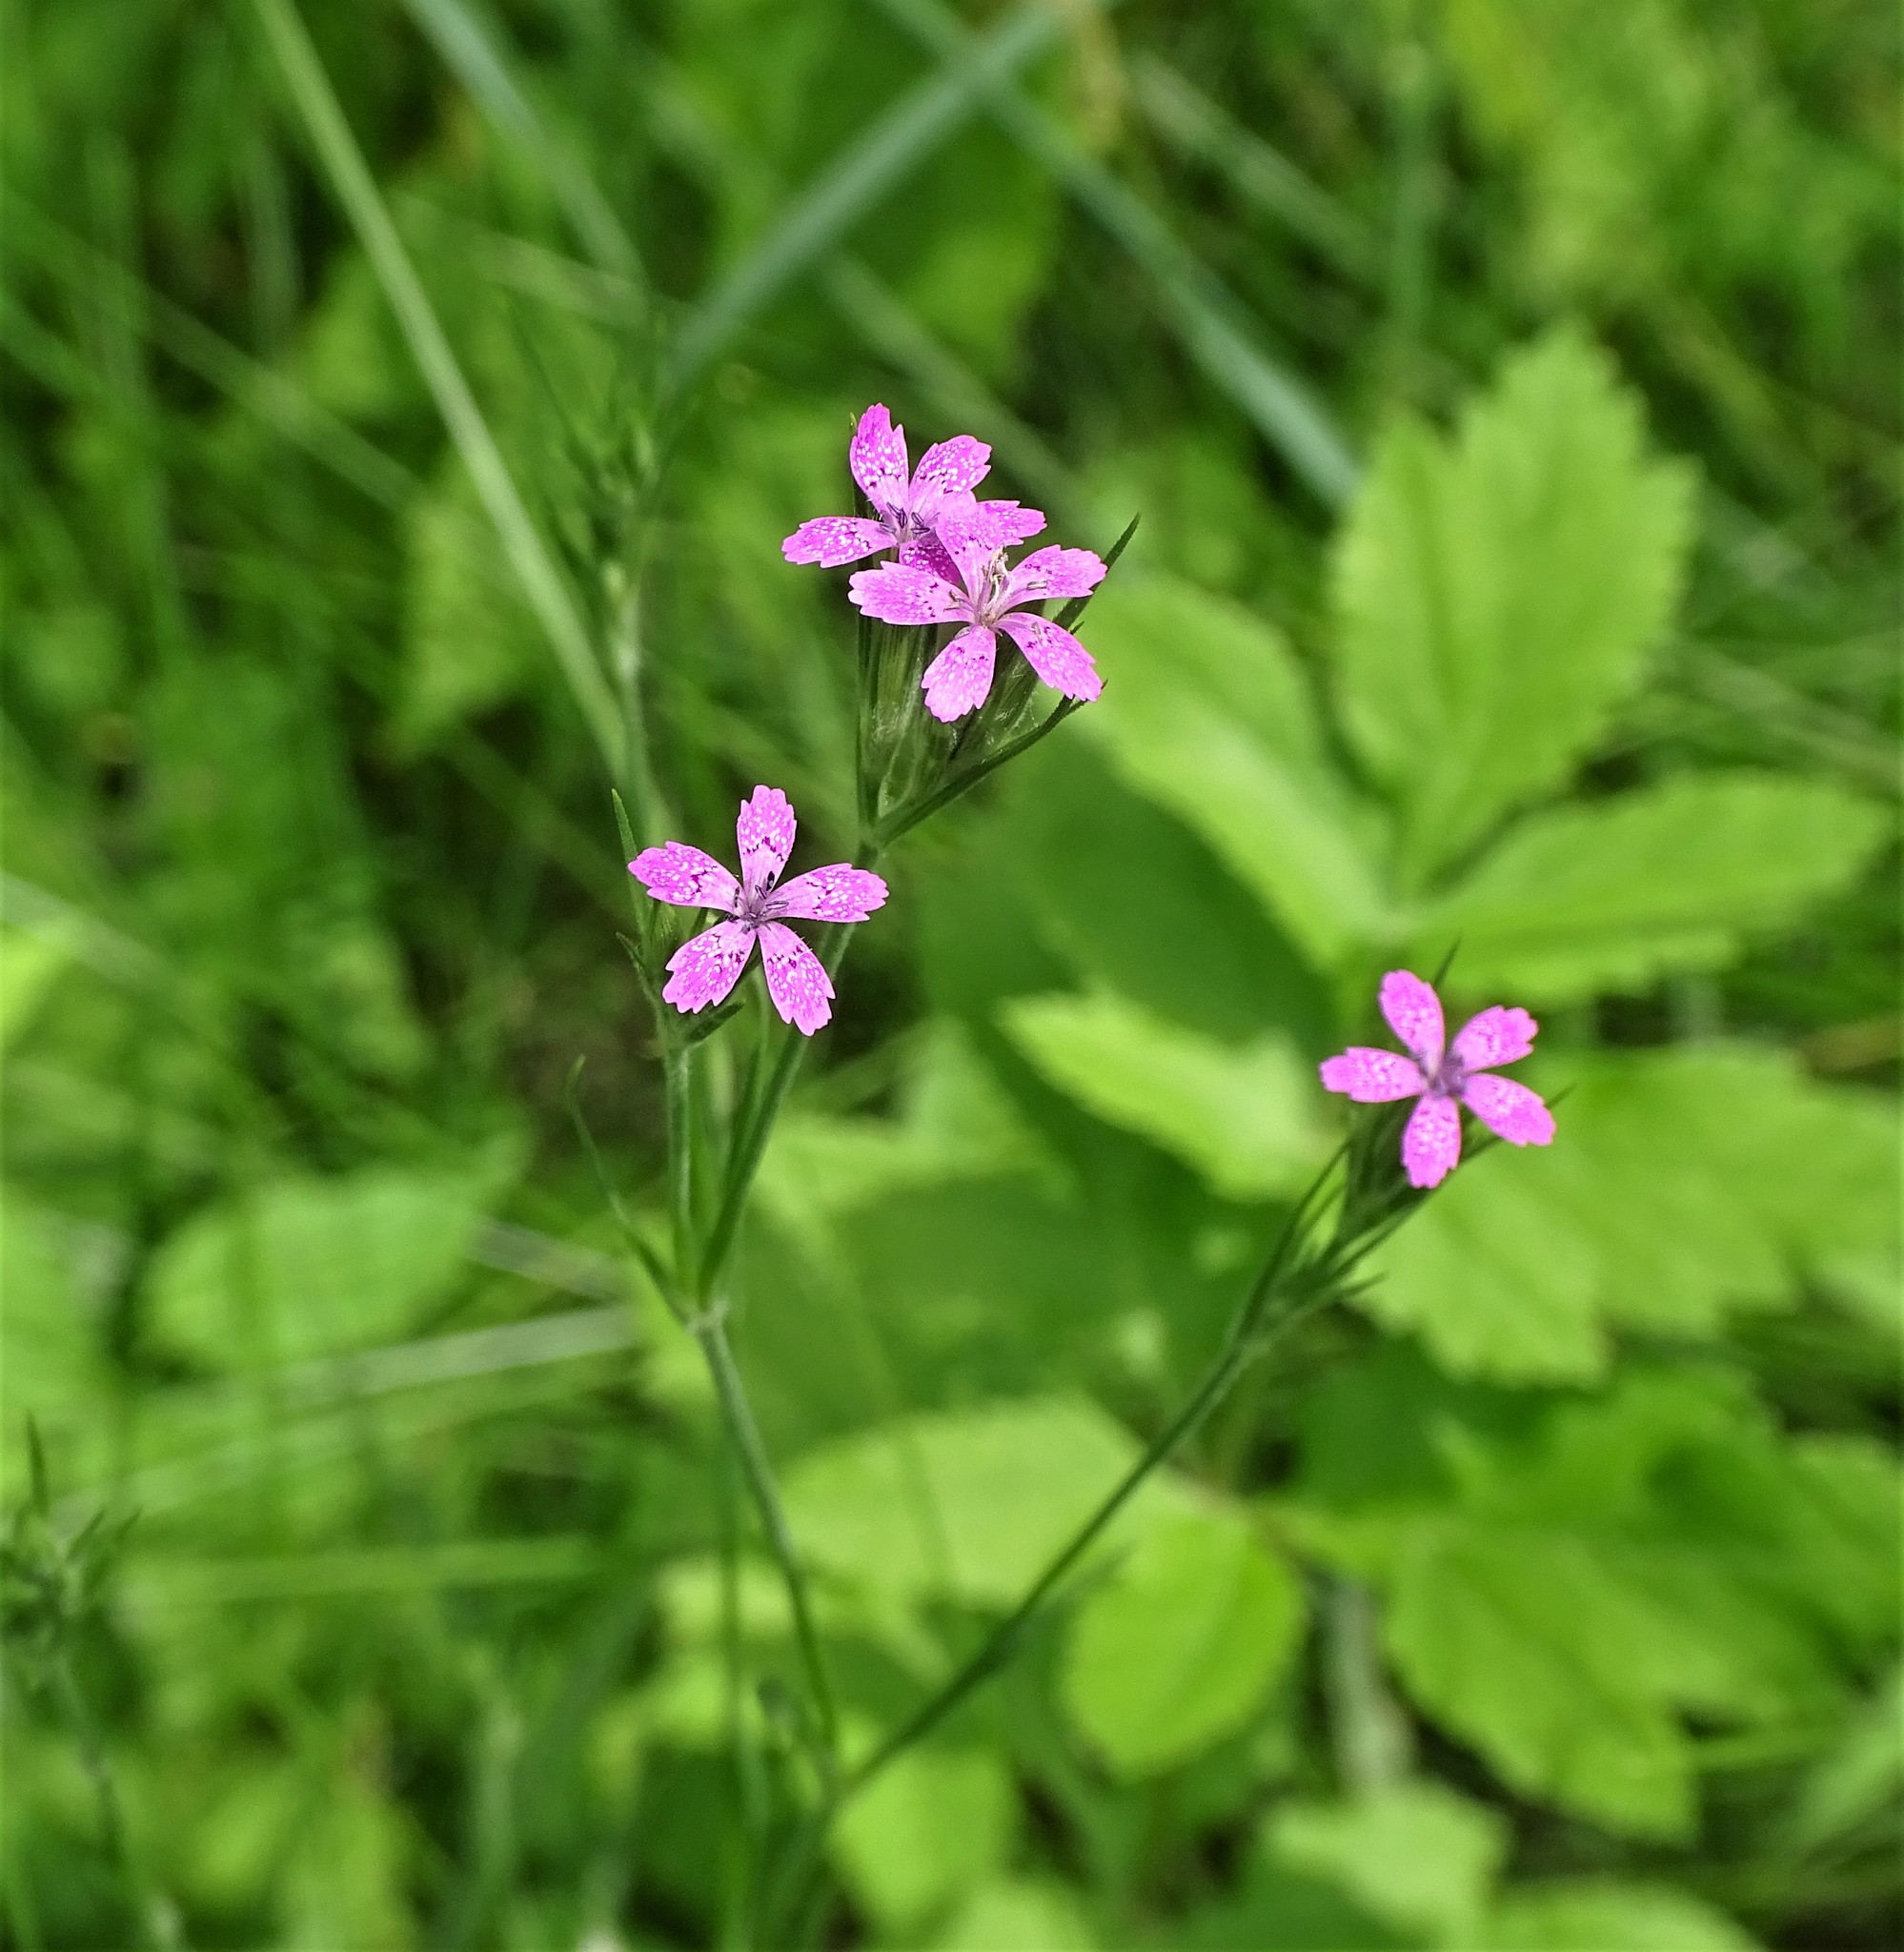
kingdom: Plantae
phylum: Tracheophyta
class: Magnoliopsida
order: Caryophyllales
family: Caryophyllaceae
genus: Dianthus
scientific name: Dianthus armeria
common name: Deptford pink
